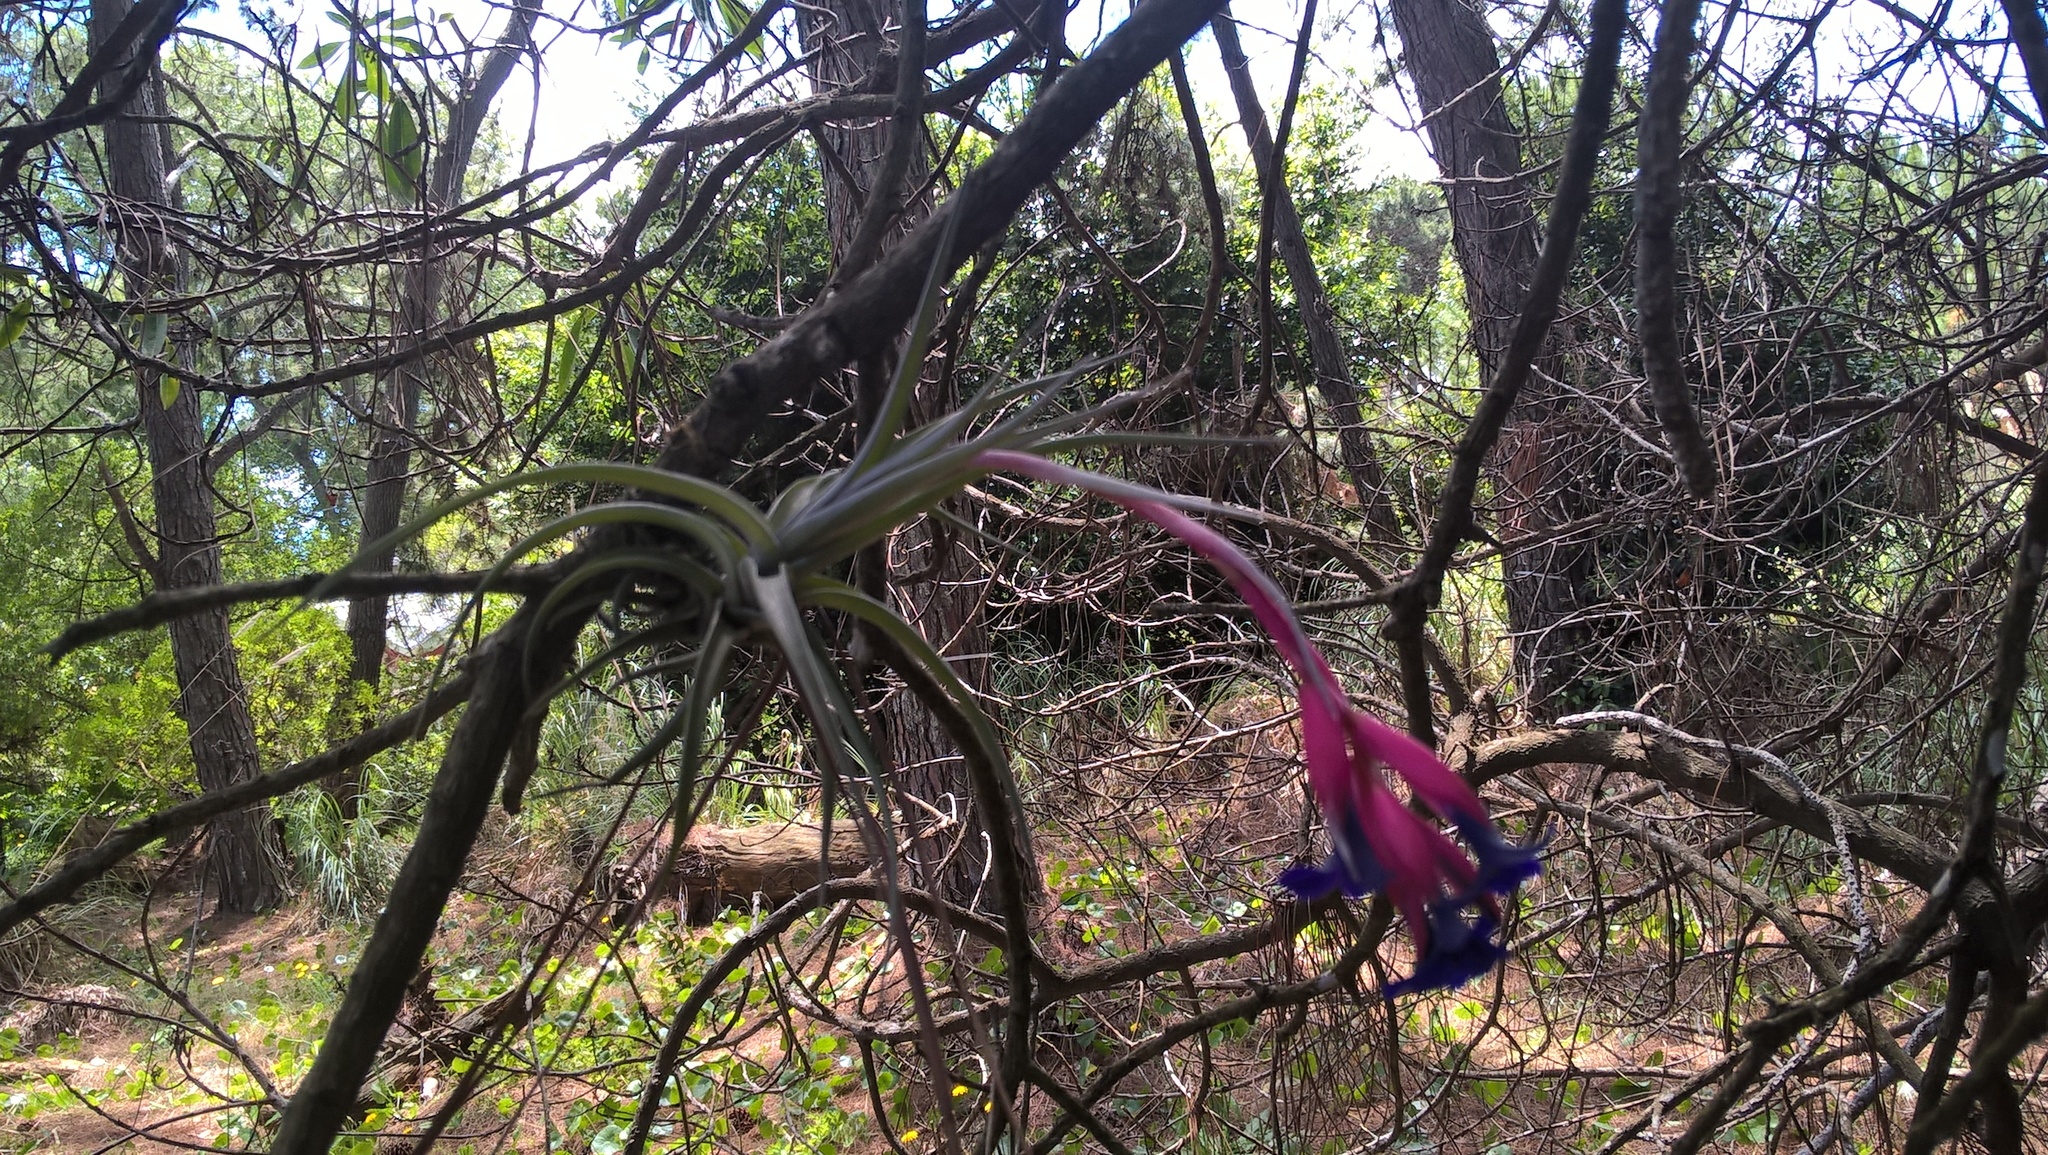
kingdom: Plantae
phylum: Tracheophyta
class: Liliopsida
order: Poales
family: Bromeliaceae
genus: Tillandsia
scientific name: Tillandsia aeranthos
